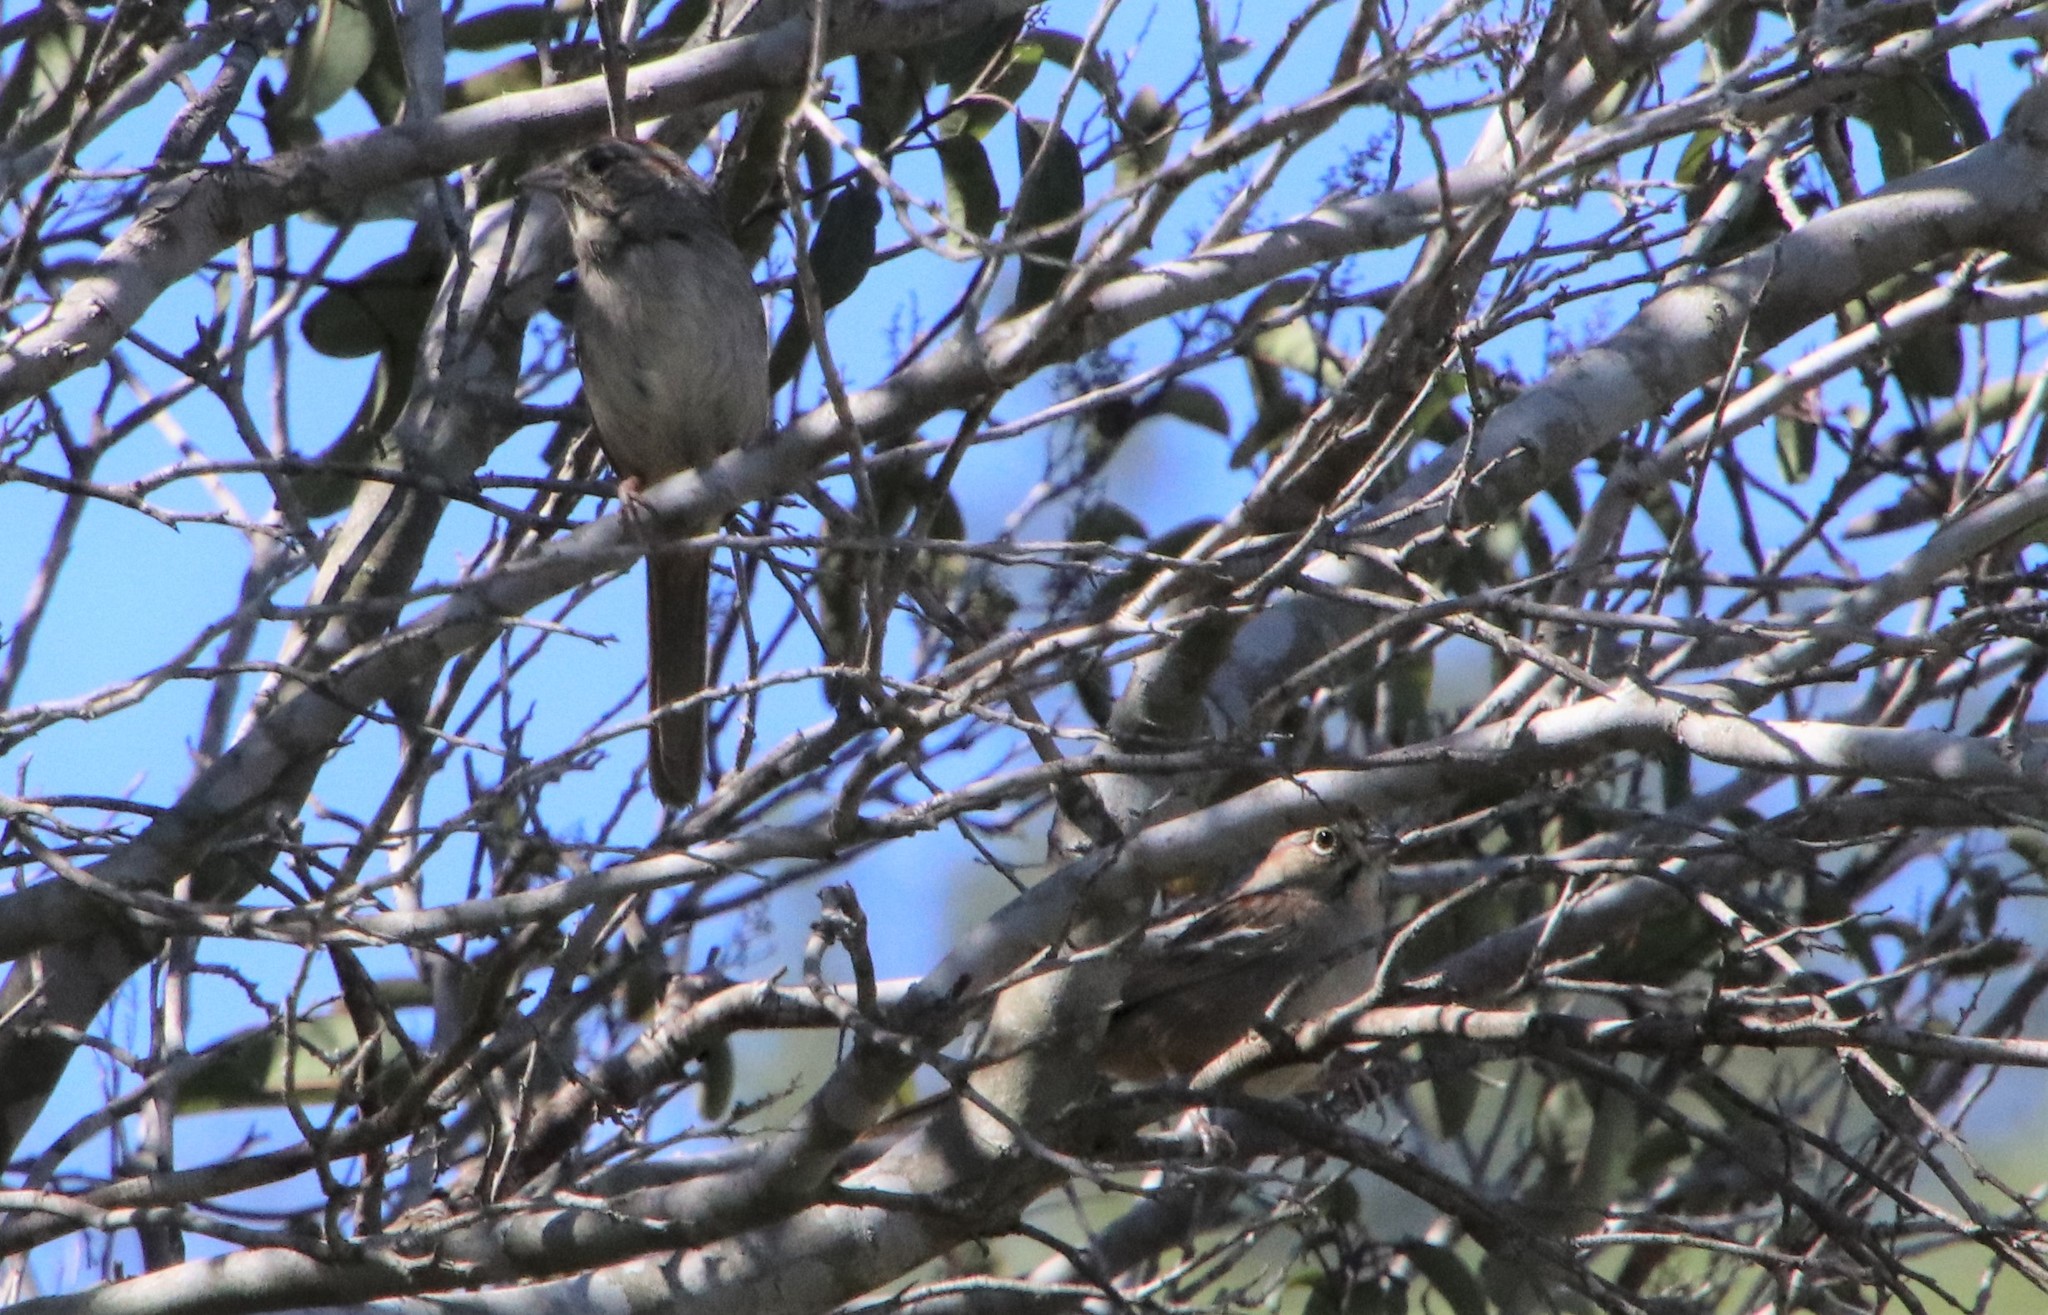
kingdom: Animalia
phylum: Chordata
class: Aves
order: Passeriformes
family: Passerellidae
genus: Aimophila
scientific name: Aimophila ruficeps
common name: Rufous-crowned sparrow
